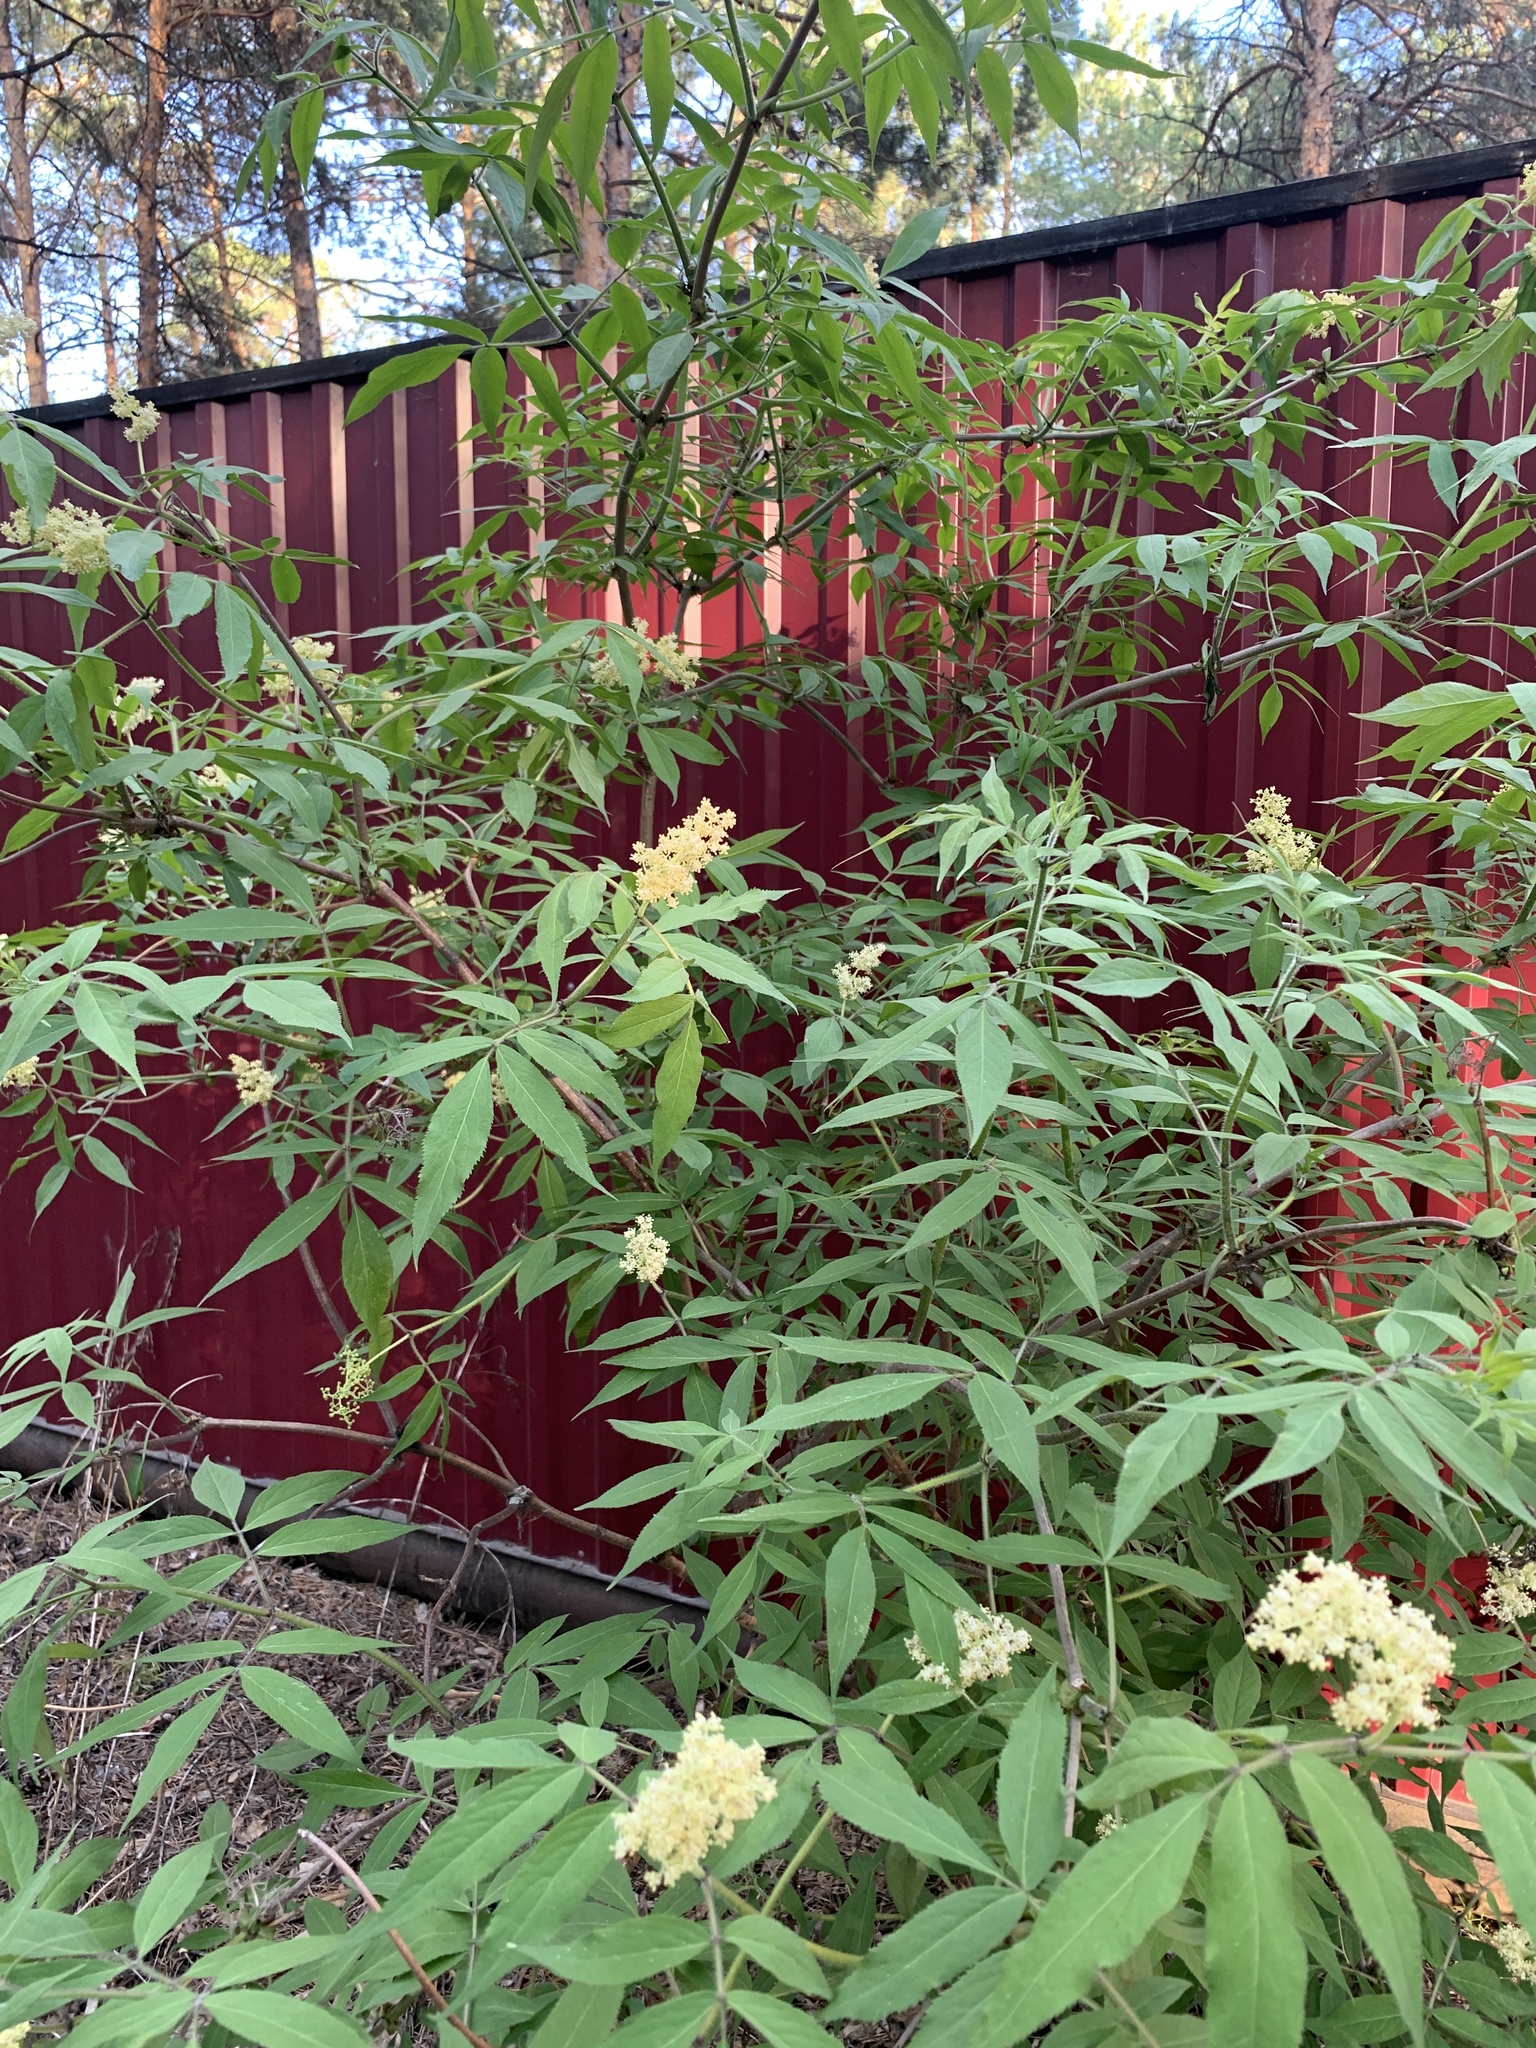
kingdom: Plantae
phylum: Tracheophyta
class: Magnoliopsida
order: Dipsacales
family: Viburnaceae
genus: Sambucus
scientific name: Sambucus sibirica
